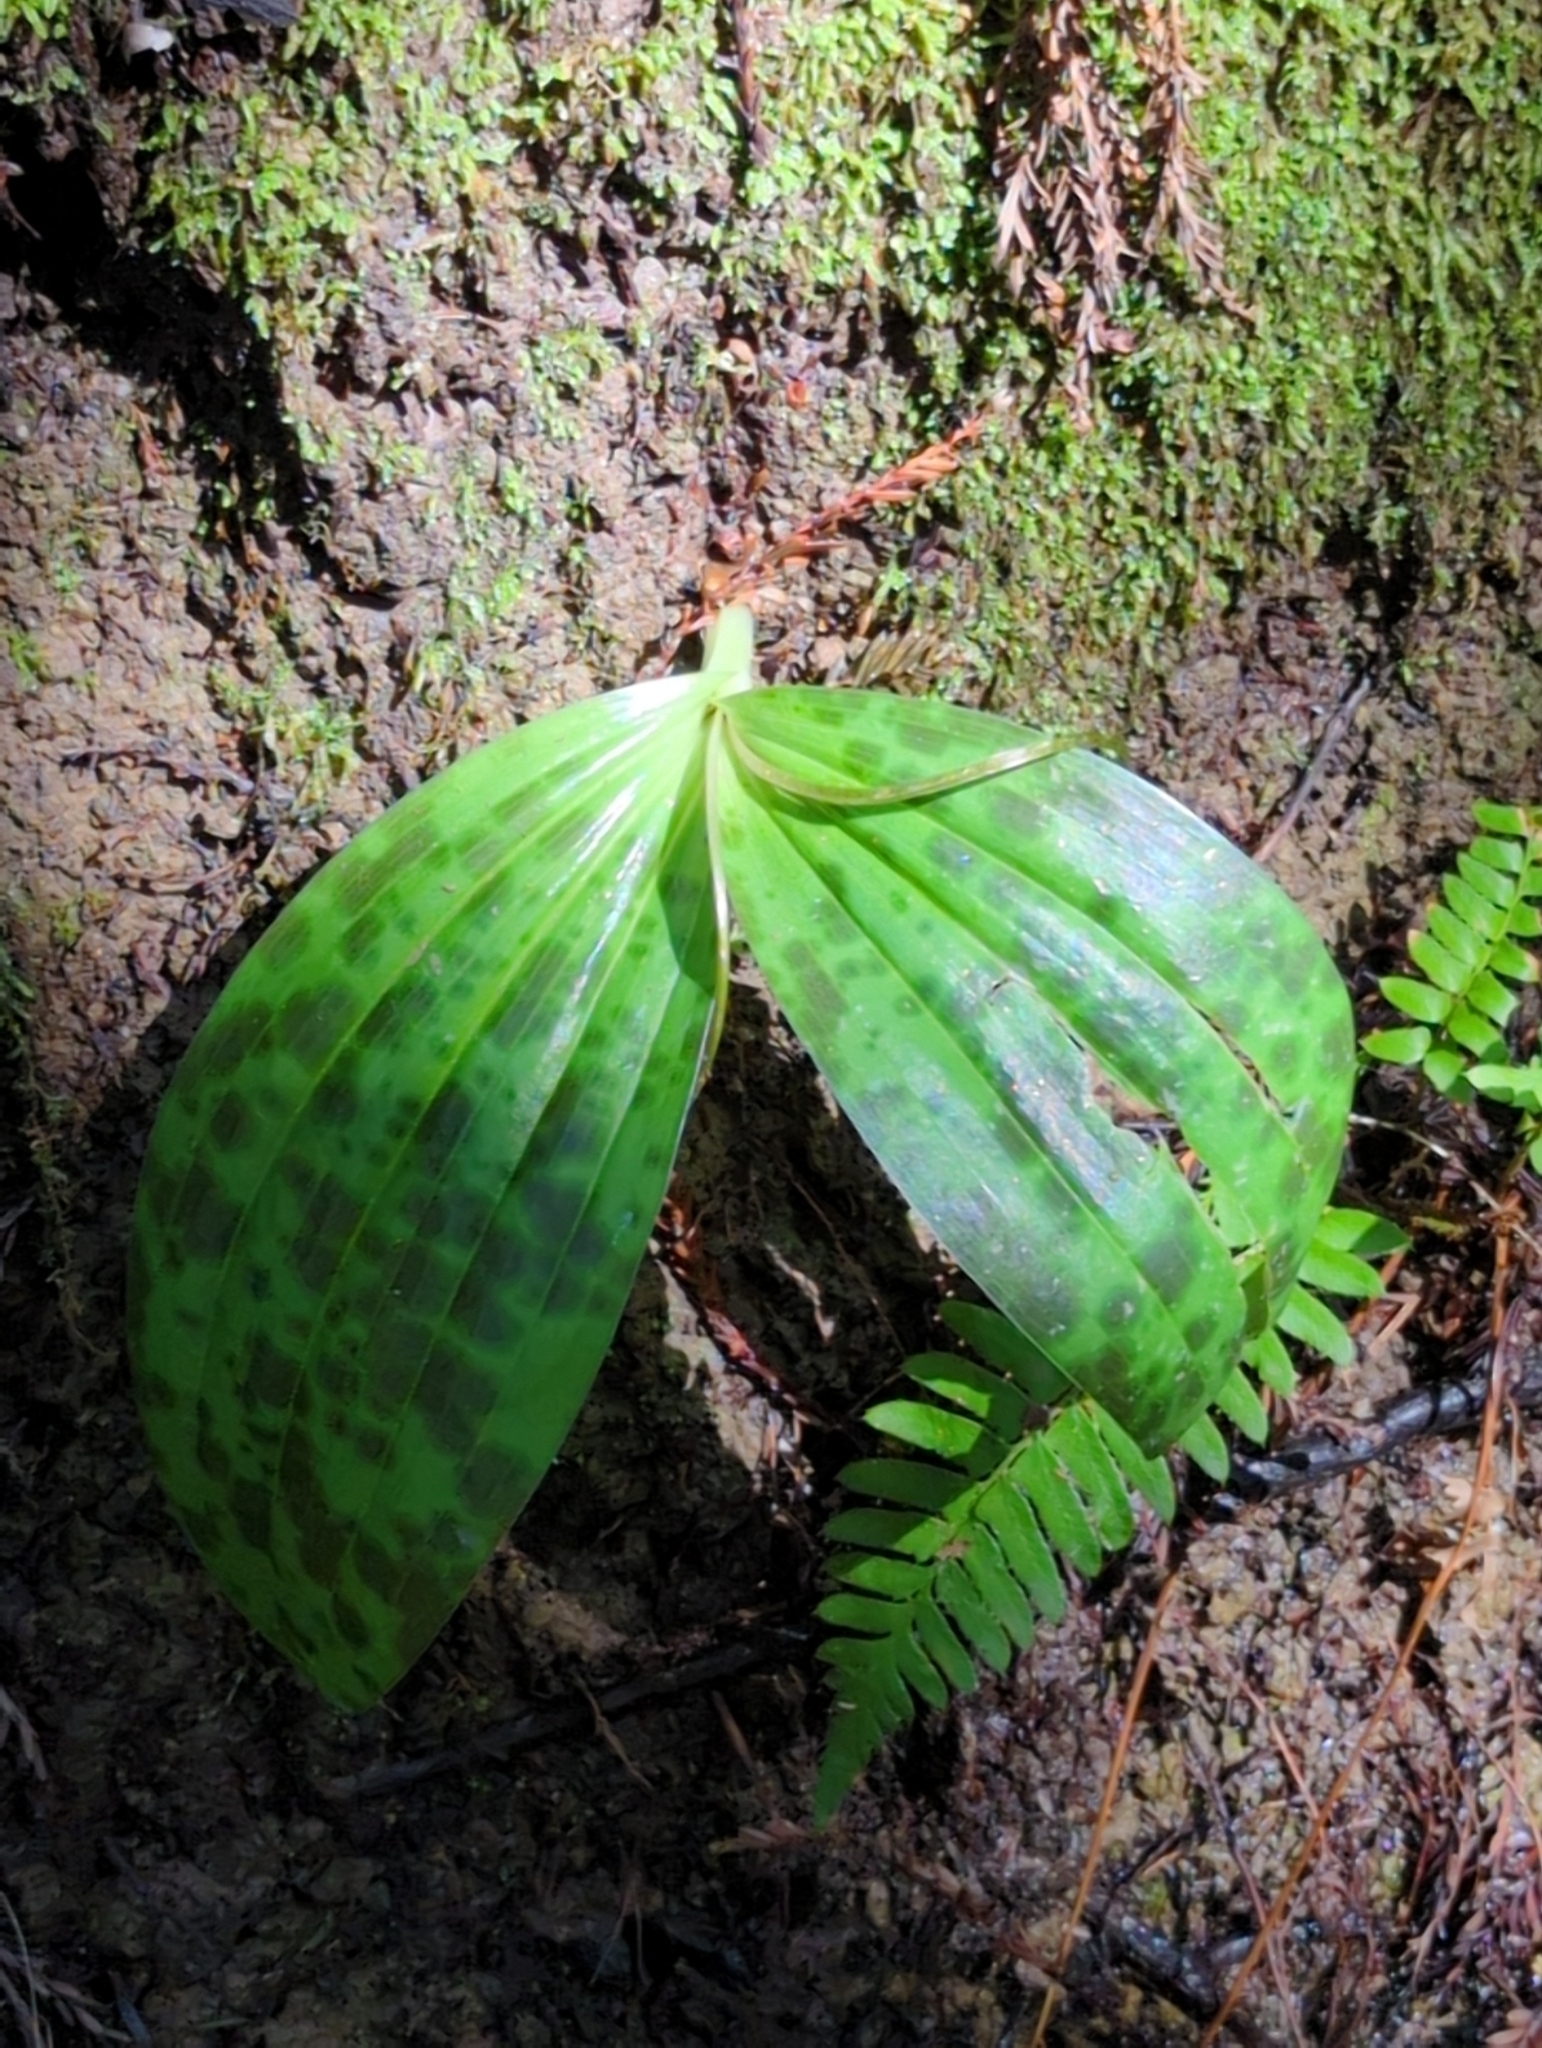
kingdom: Plantae
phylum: Tracheophyta
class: Liliopsida
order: Liliales
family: Liliaceae
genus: Scoliopus
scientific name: Scoliopus bigelovii
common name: Foetid adder's-tongue
